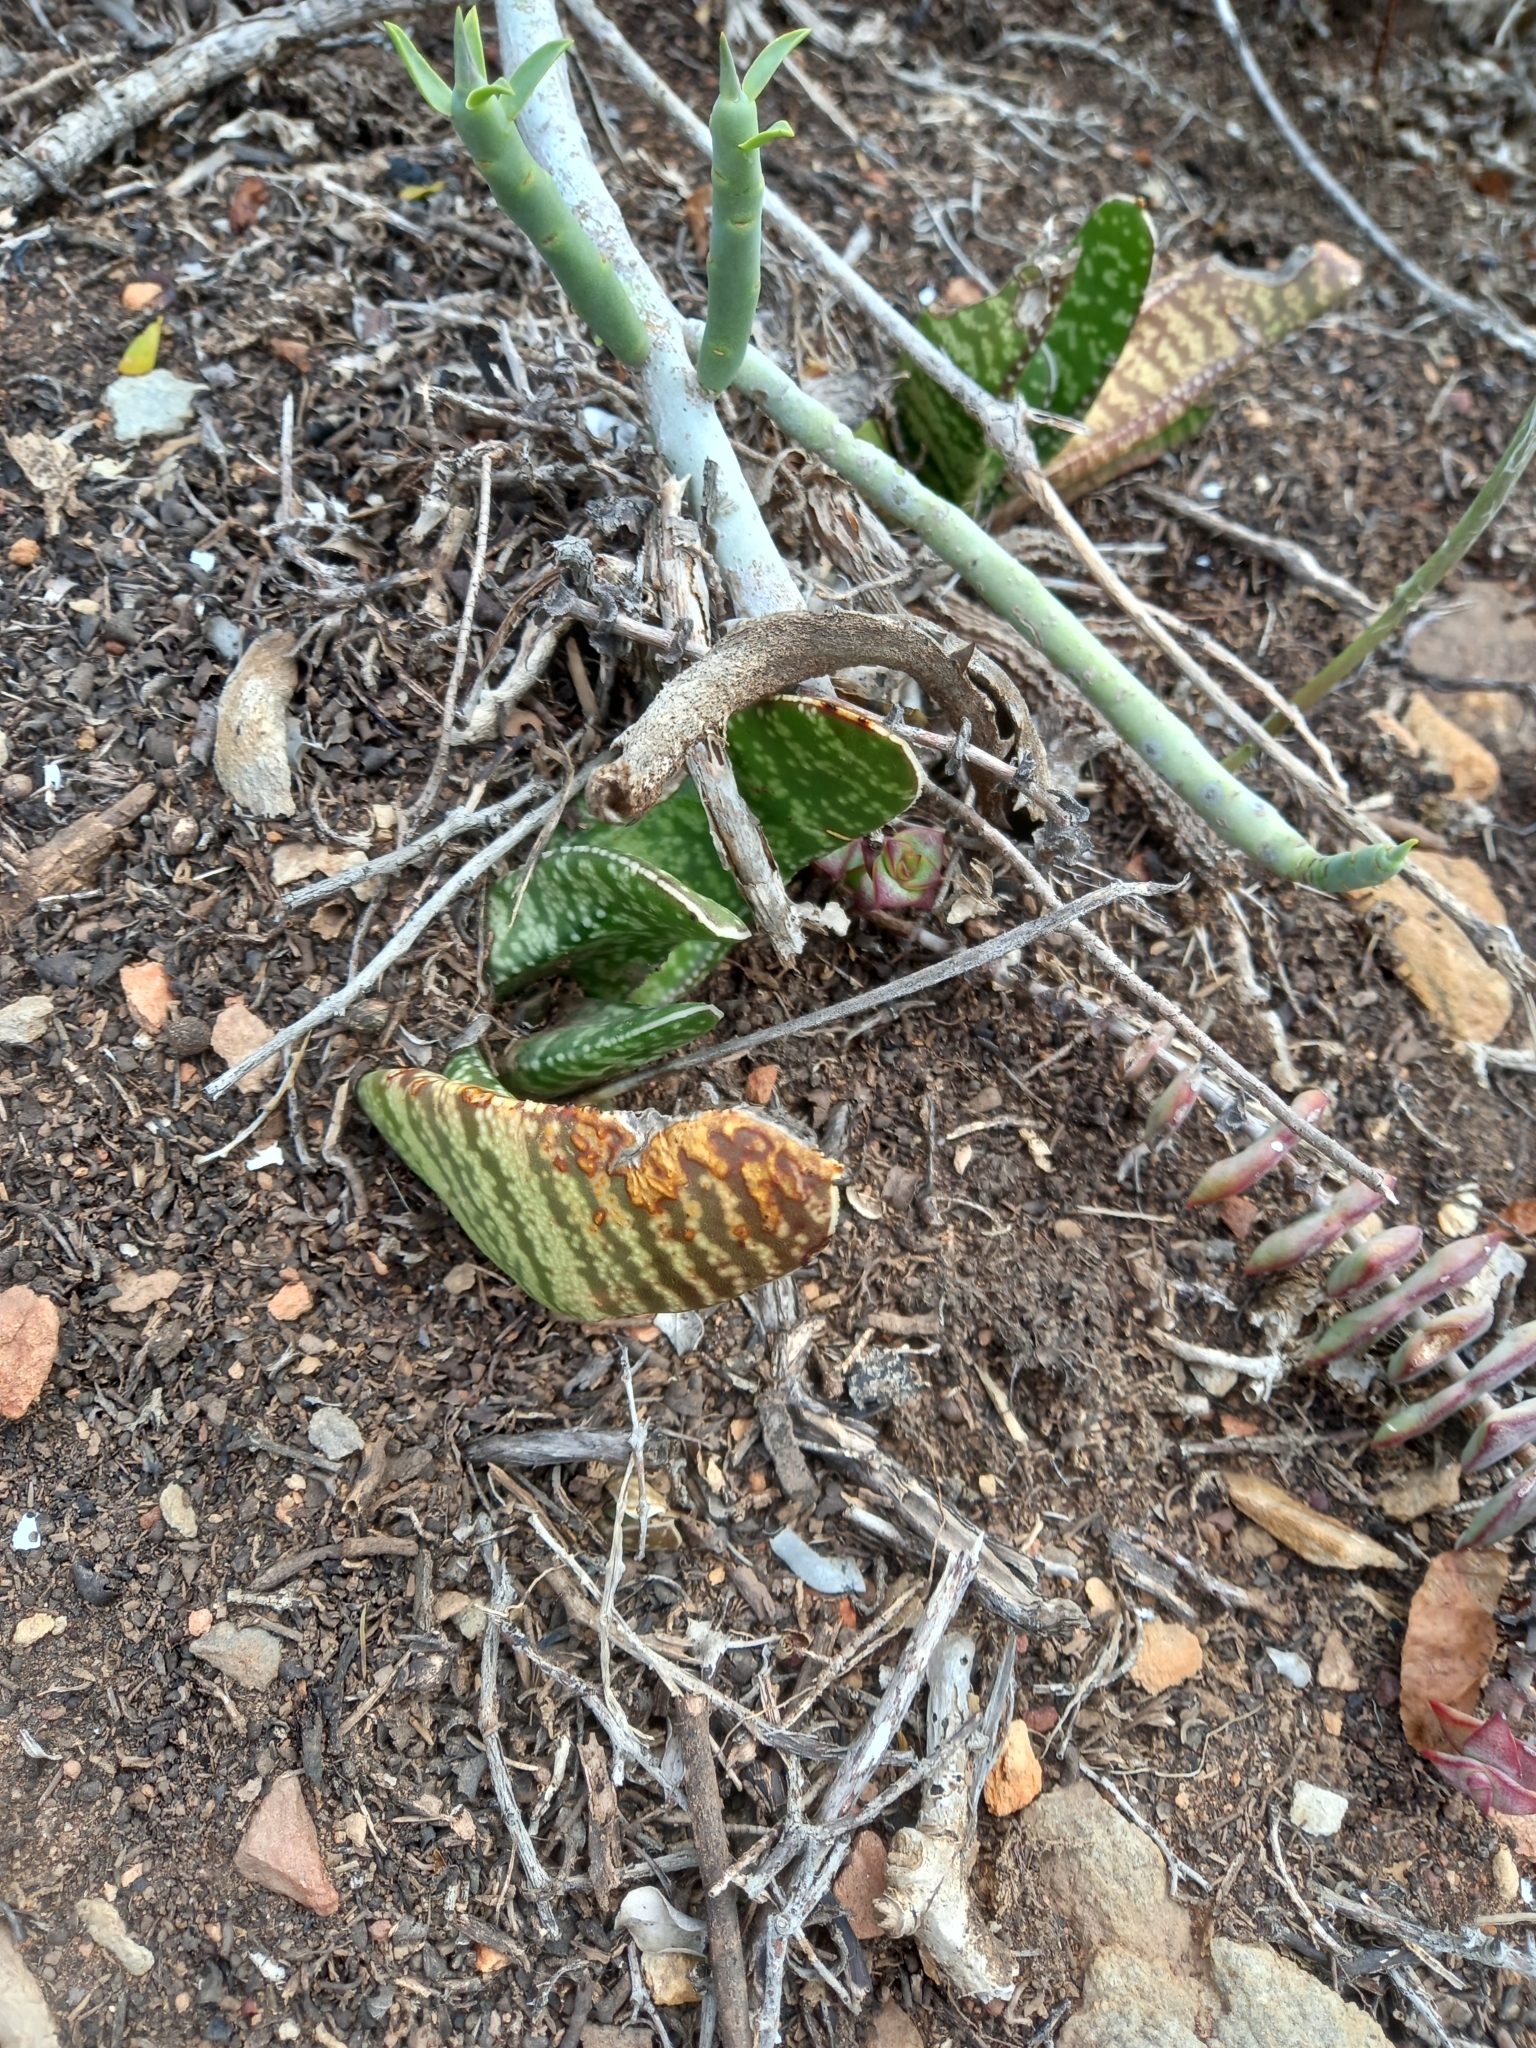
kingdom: Plantae
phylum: Tracheophyta
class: Liliopsida
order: Asparagales
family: Asphodelaceae
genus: Gasteria
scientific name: Gasteria carinata
